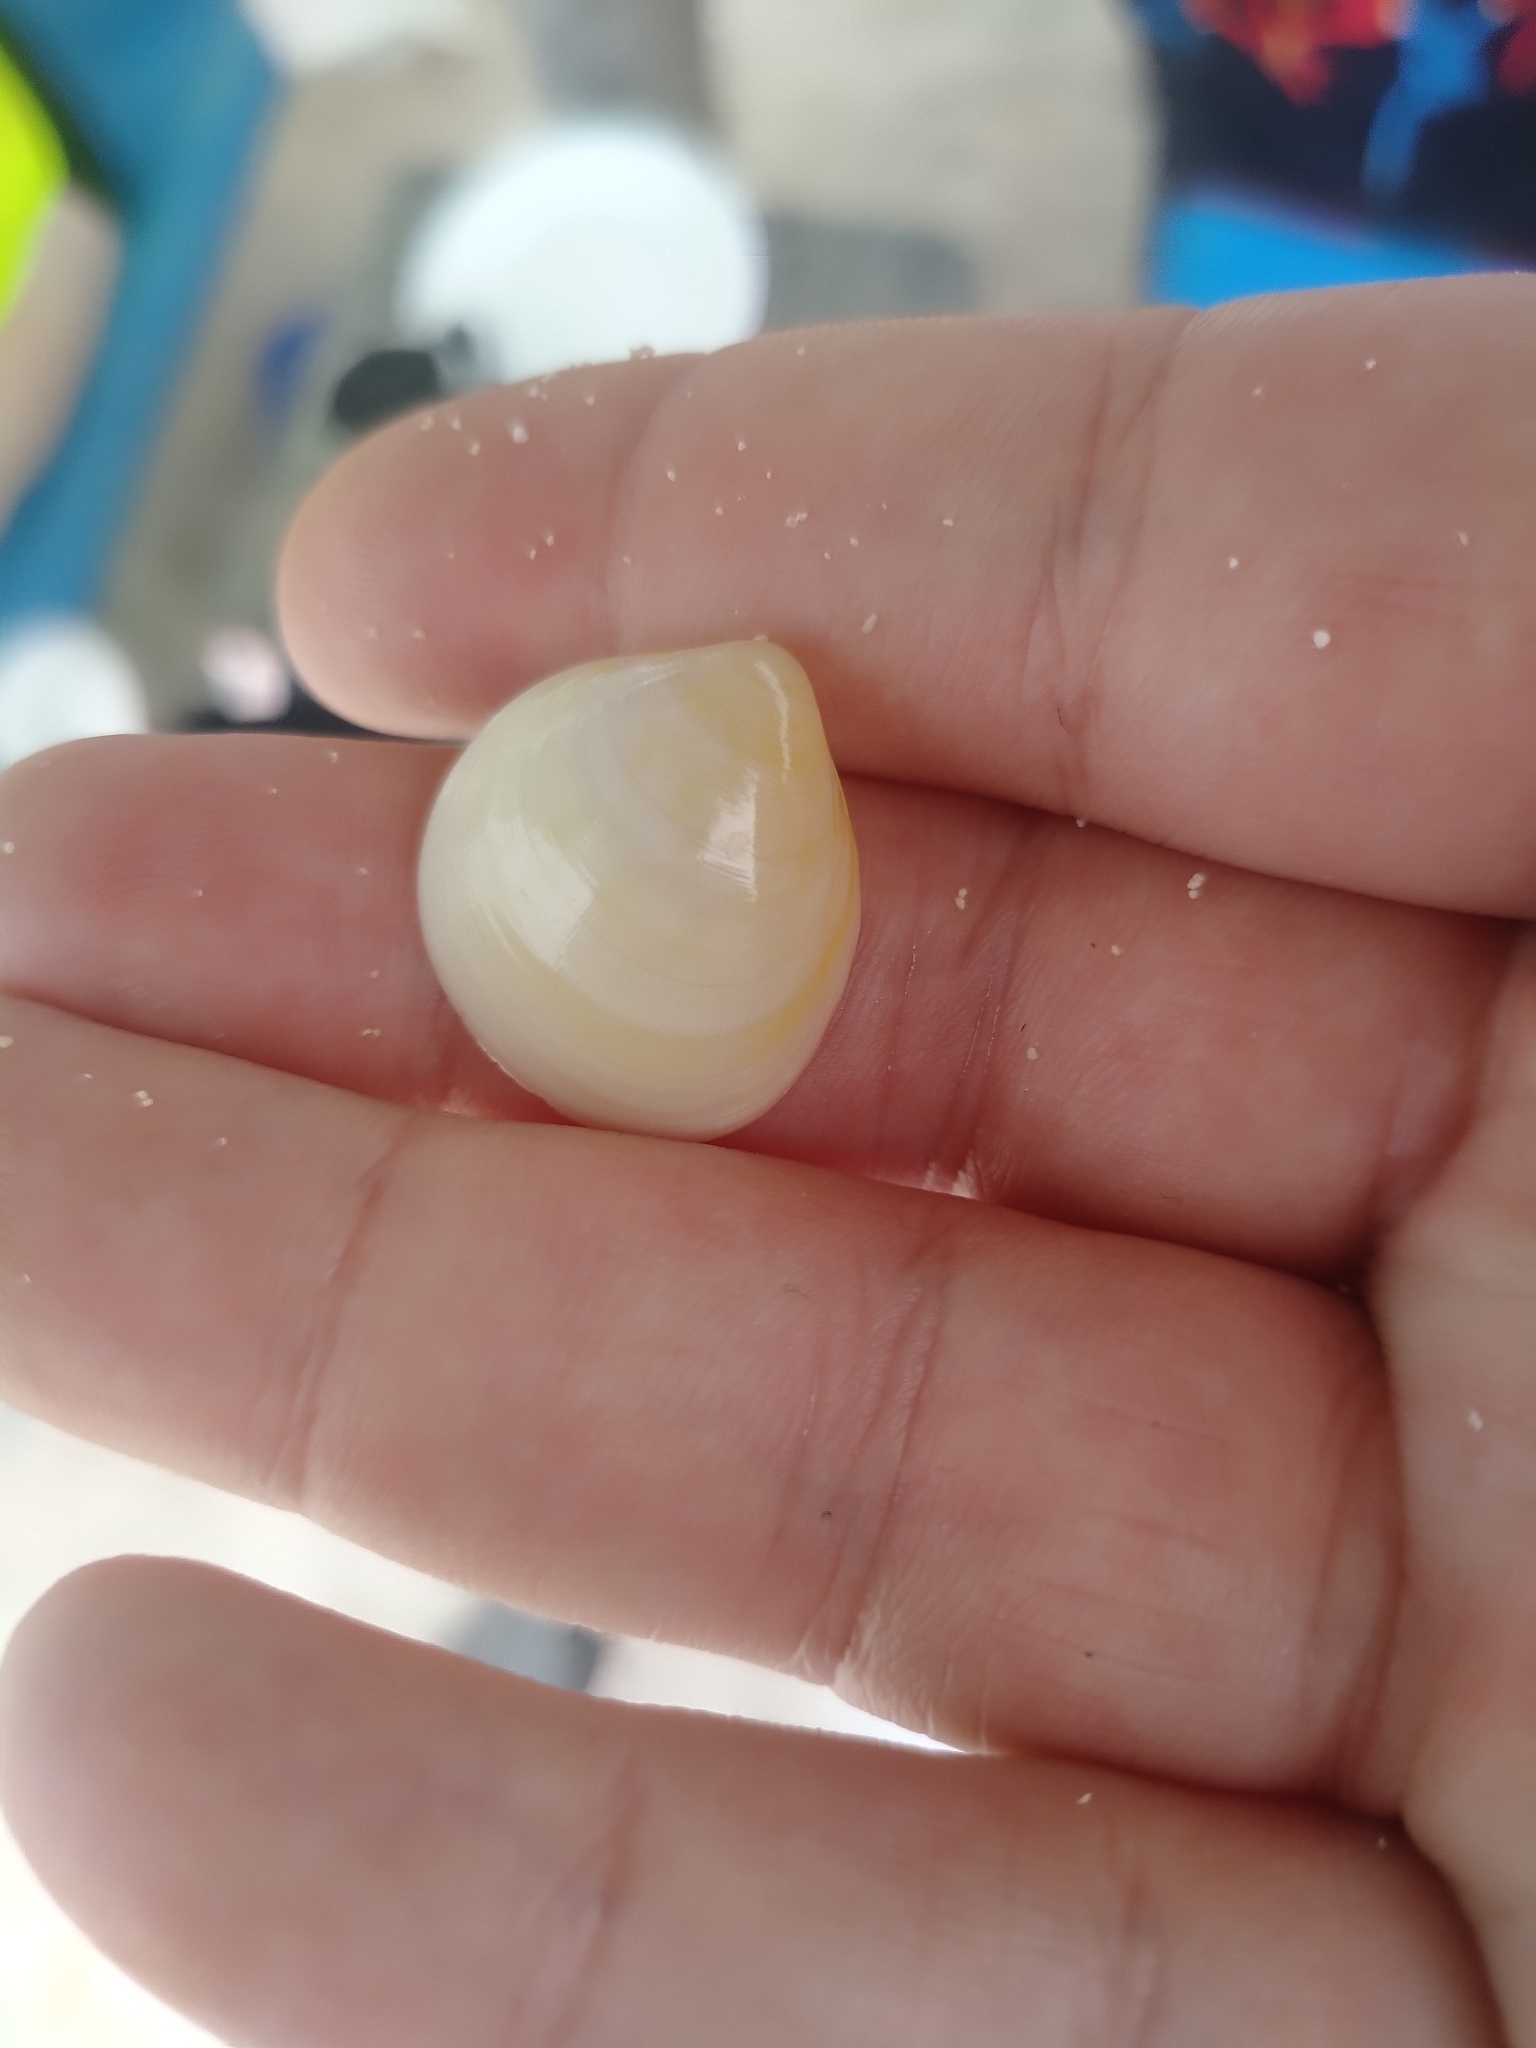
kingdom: Animalia
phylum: Mollusca
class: Bivalvia
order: Cardiida
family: Cardiidae
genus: Laevicardium
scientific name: Laevicardium serratum
